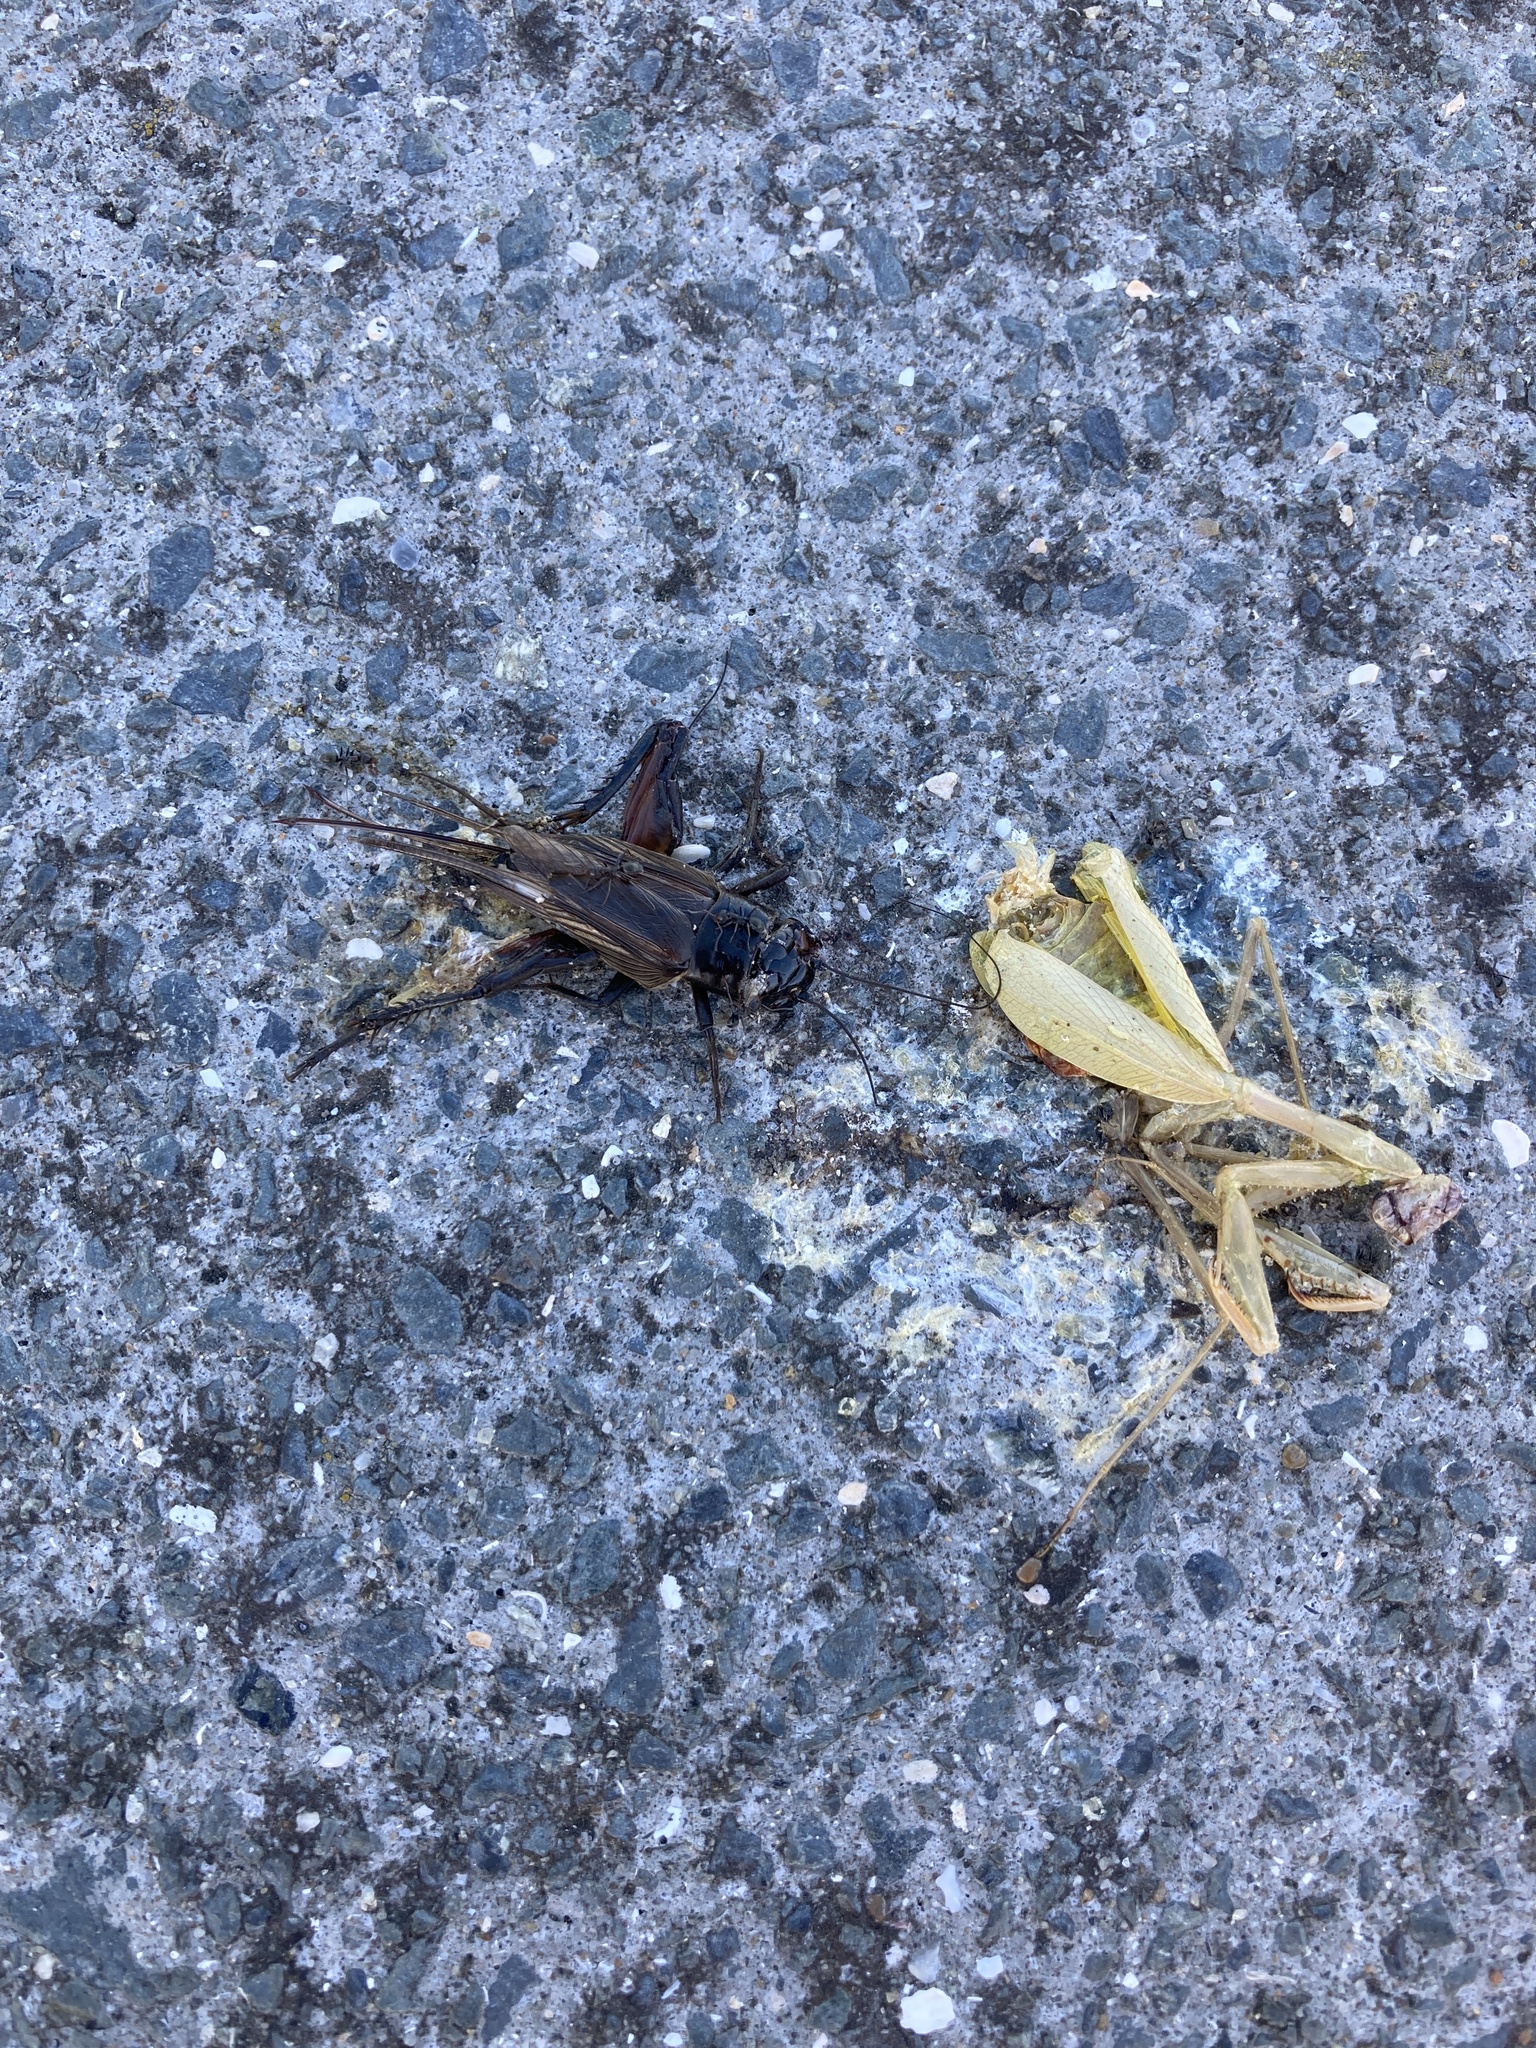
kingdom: Animalia
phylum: Arthropoda
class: Insecta
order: Mantodea
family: Miomantidae
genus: Miomantis
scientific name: Miomantis caffra
